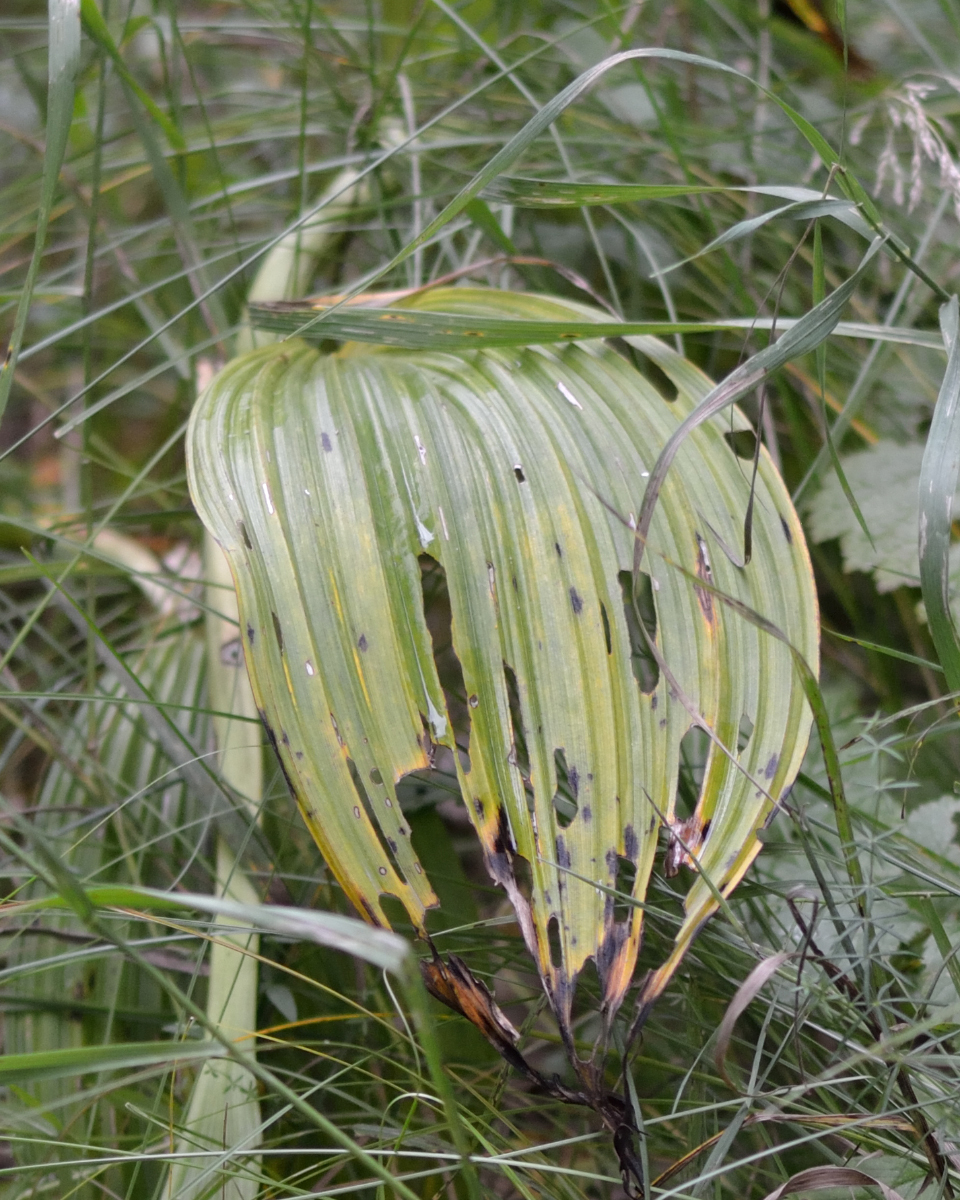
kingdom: Plantae
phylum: Tracheophyta
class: Liliopsida
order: Liliales
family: Melanthiaceae
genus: Veratrum
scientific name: Veratrum nigrum
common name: Black veratrum
